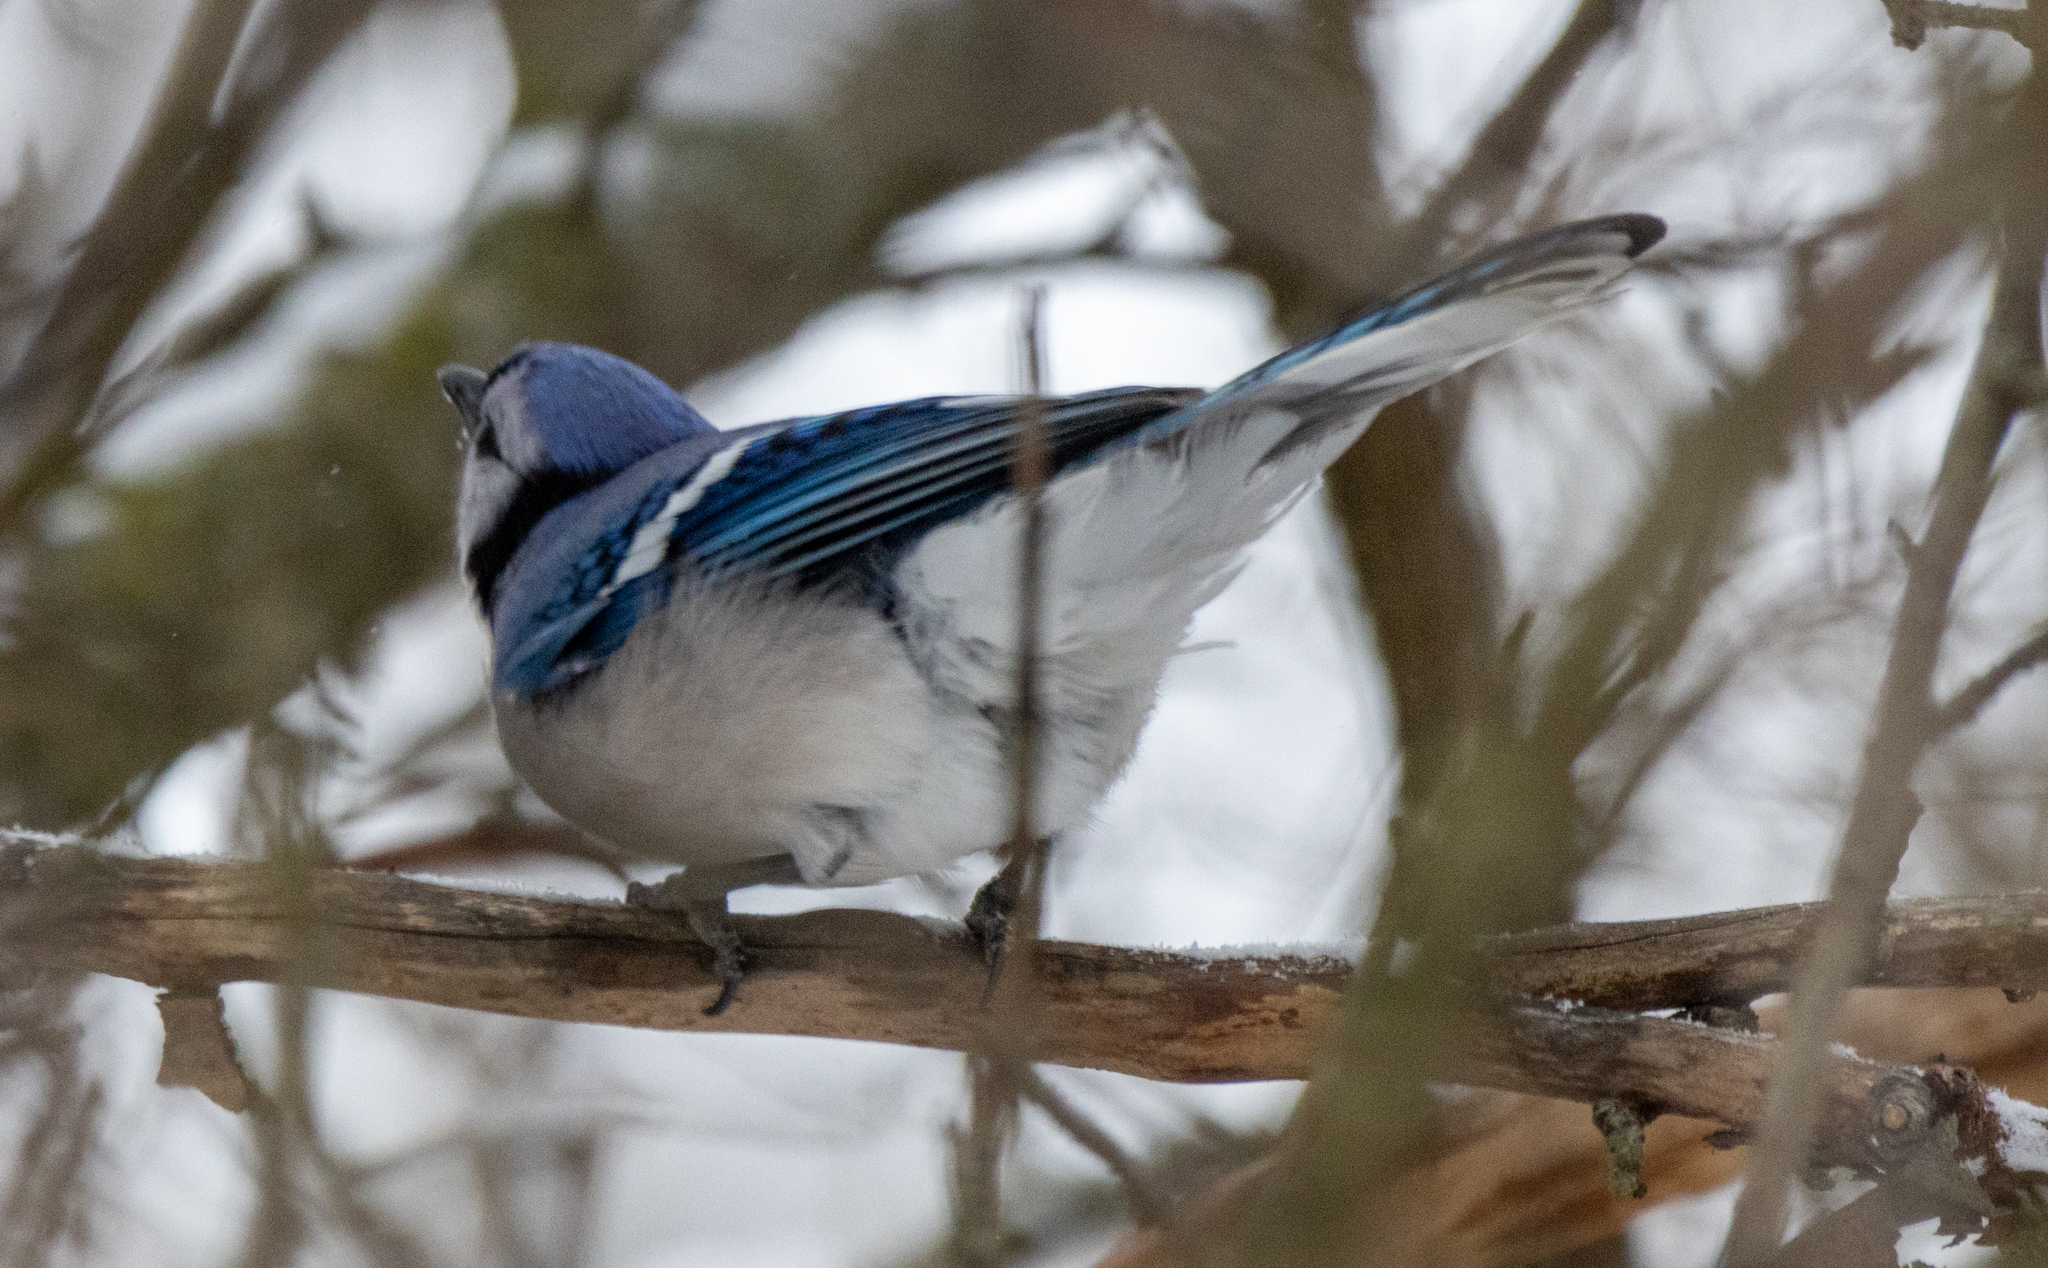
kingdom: Animalia
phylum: Chordata
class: Aves
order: Passeriformes
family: Corvidae
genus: Cyanocitta
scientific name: Cyanocitta cristata
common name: Blue jay
